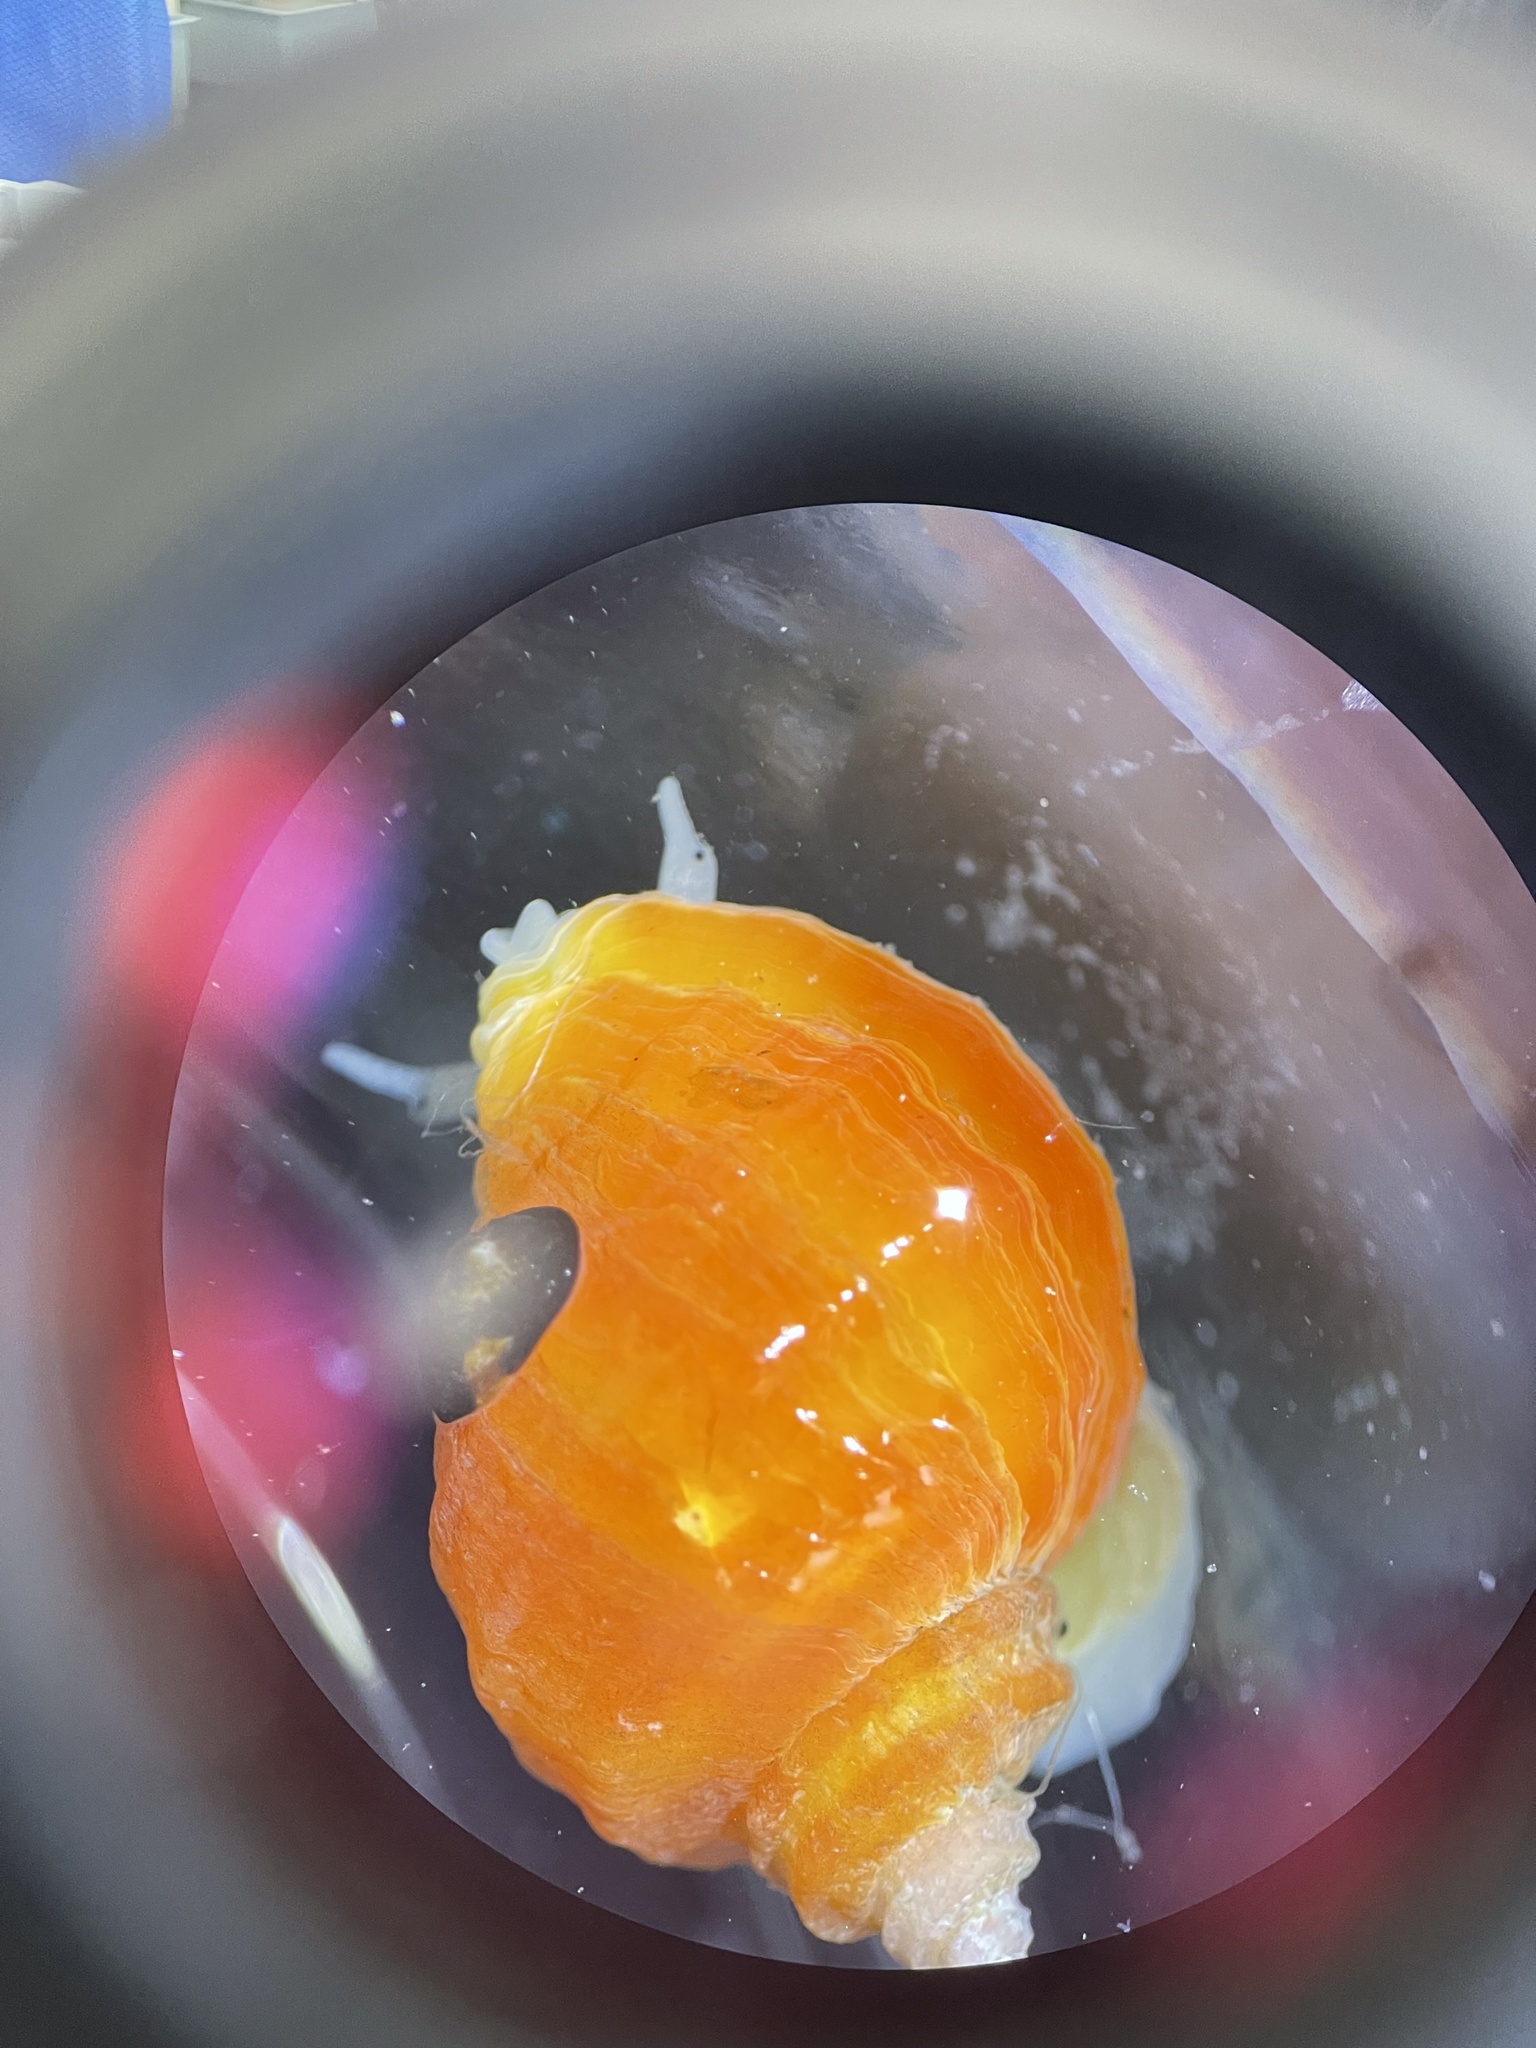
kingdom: Animalia
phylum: Mollusca
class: Gastropoda
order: Neogastropoda
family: Muricidae
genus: Nucella
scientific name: Nucella lamellosa
